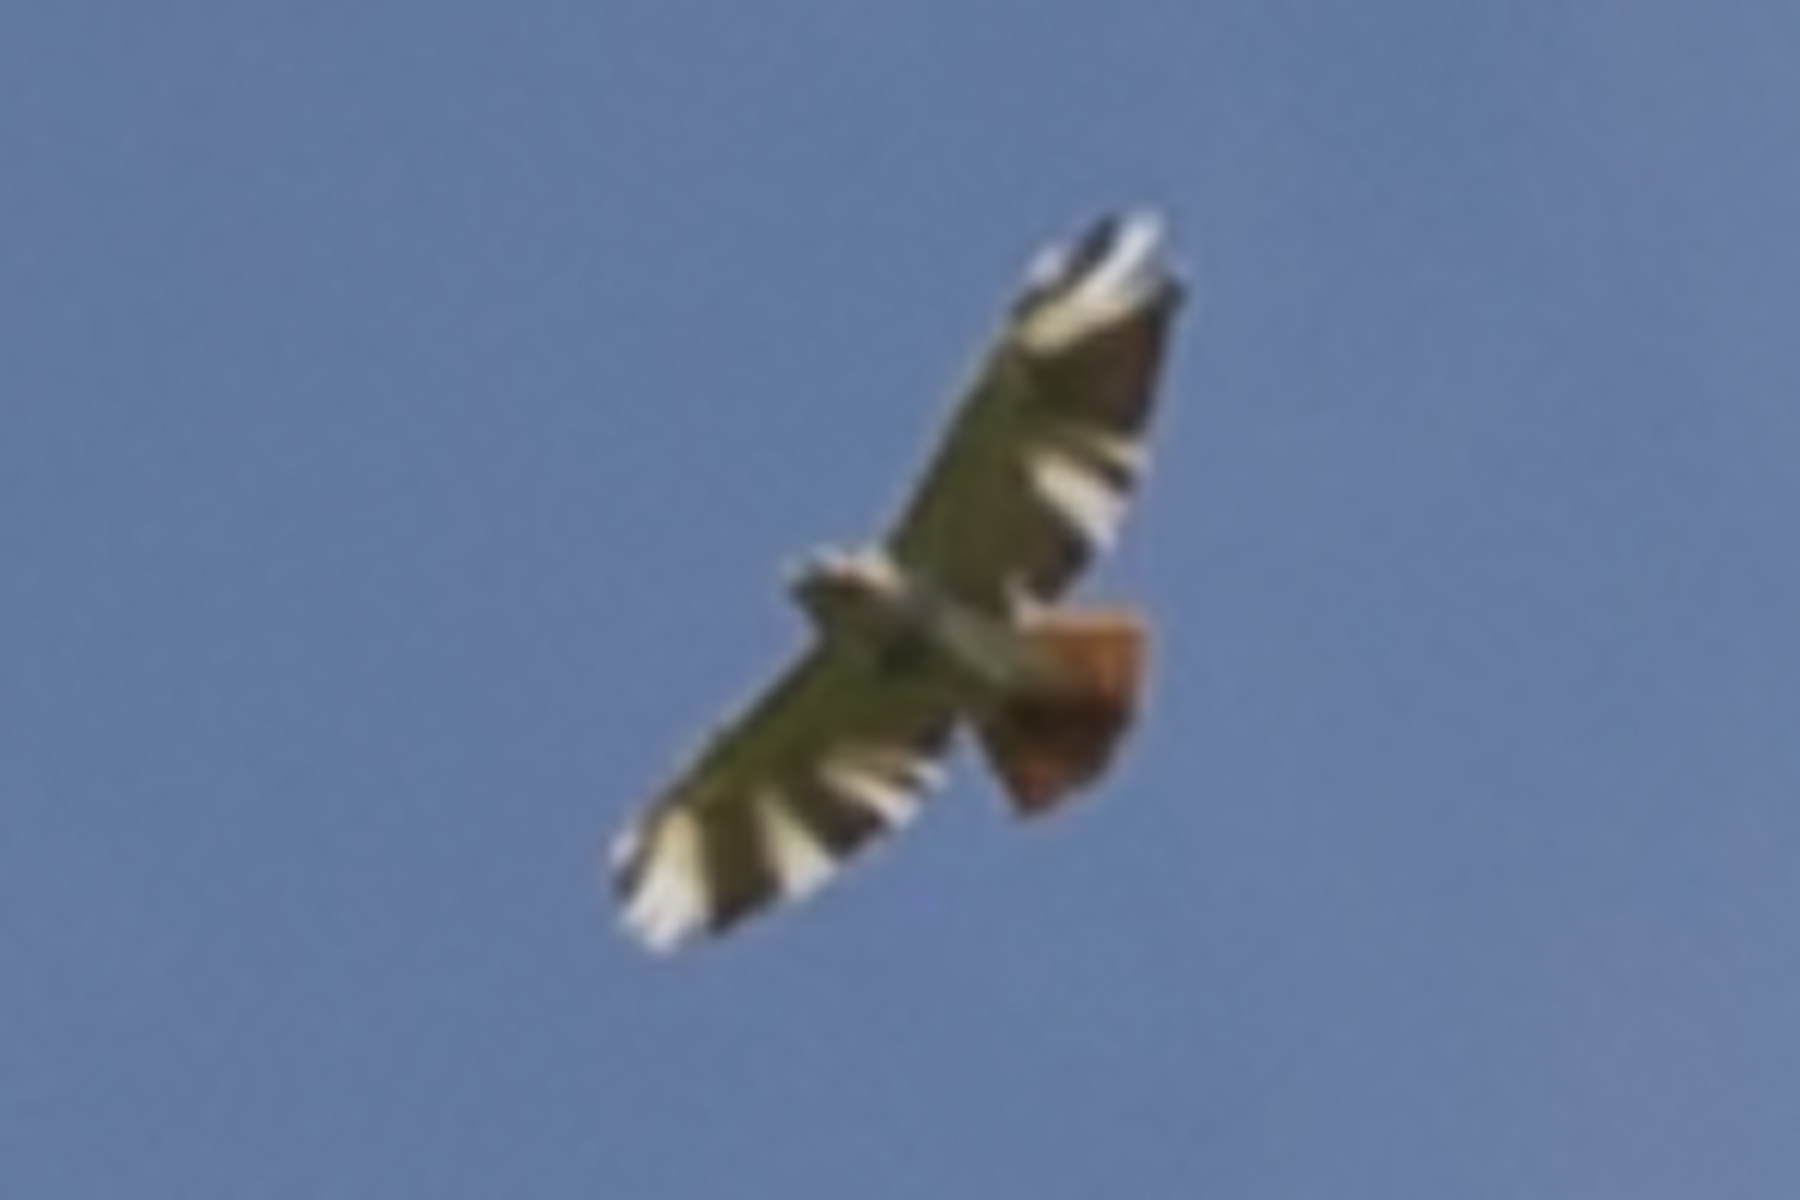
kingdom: Animalia
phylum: Chordata
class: Aves
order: Accipitriformes
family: Accipitridae
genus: Buteo
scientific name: Buteo jamaicensis
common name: Red-tailed hawk
